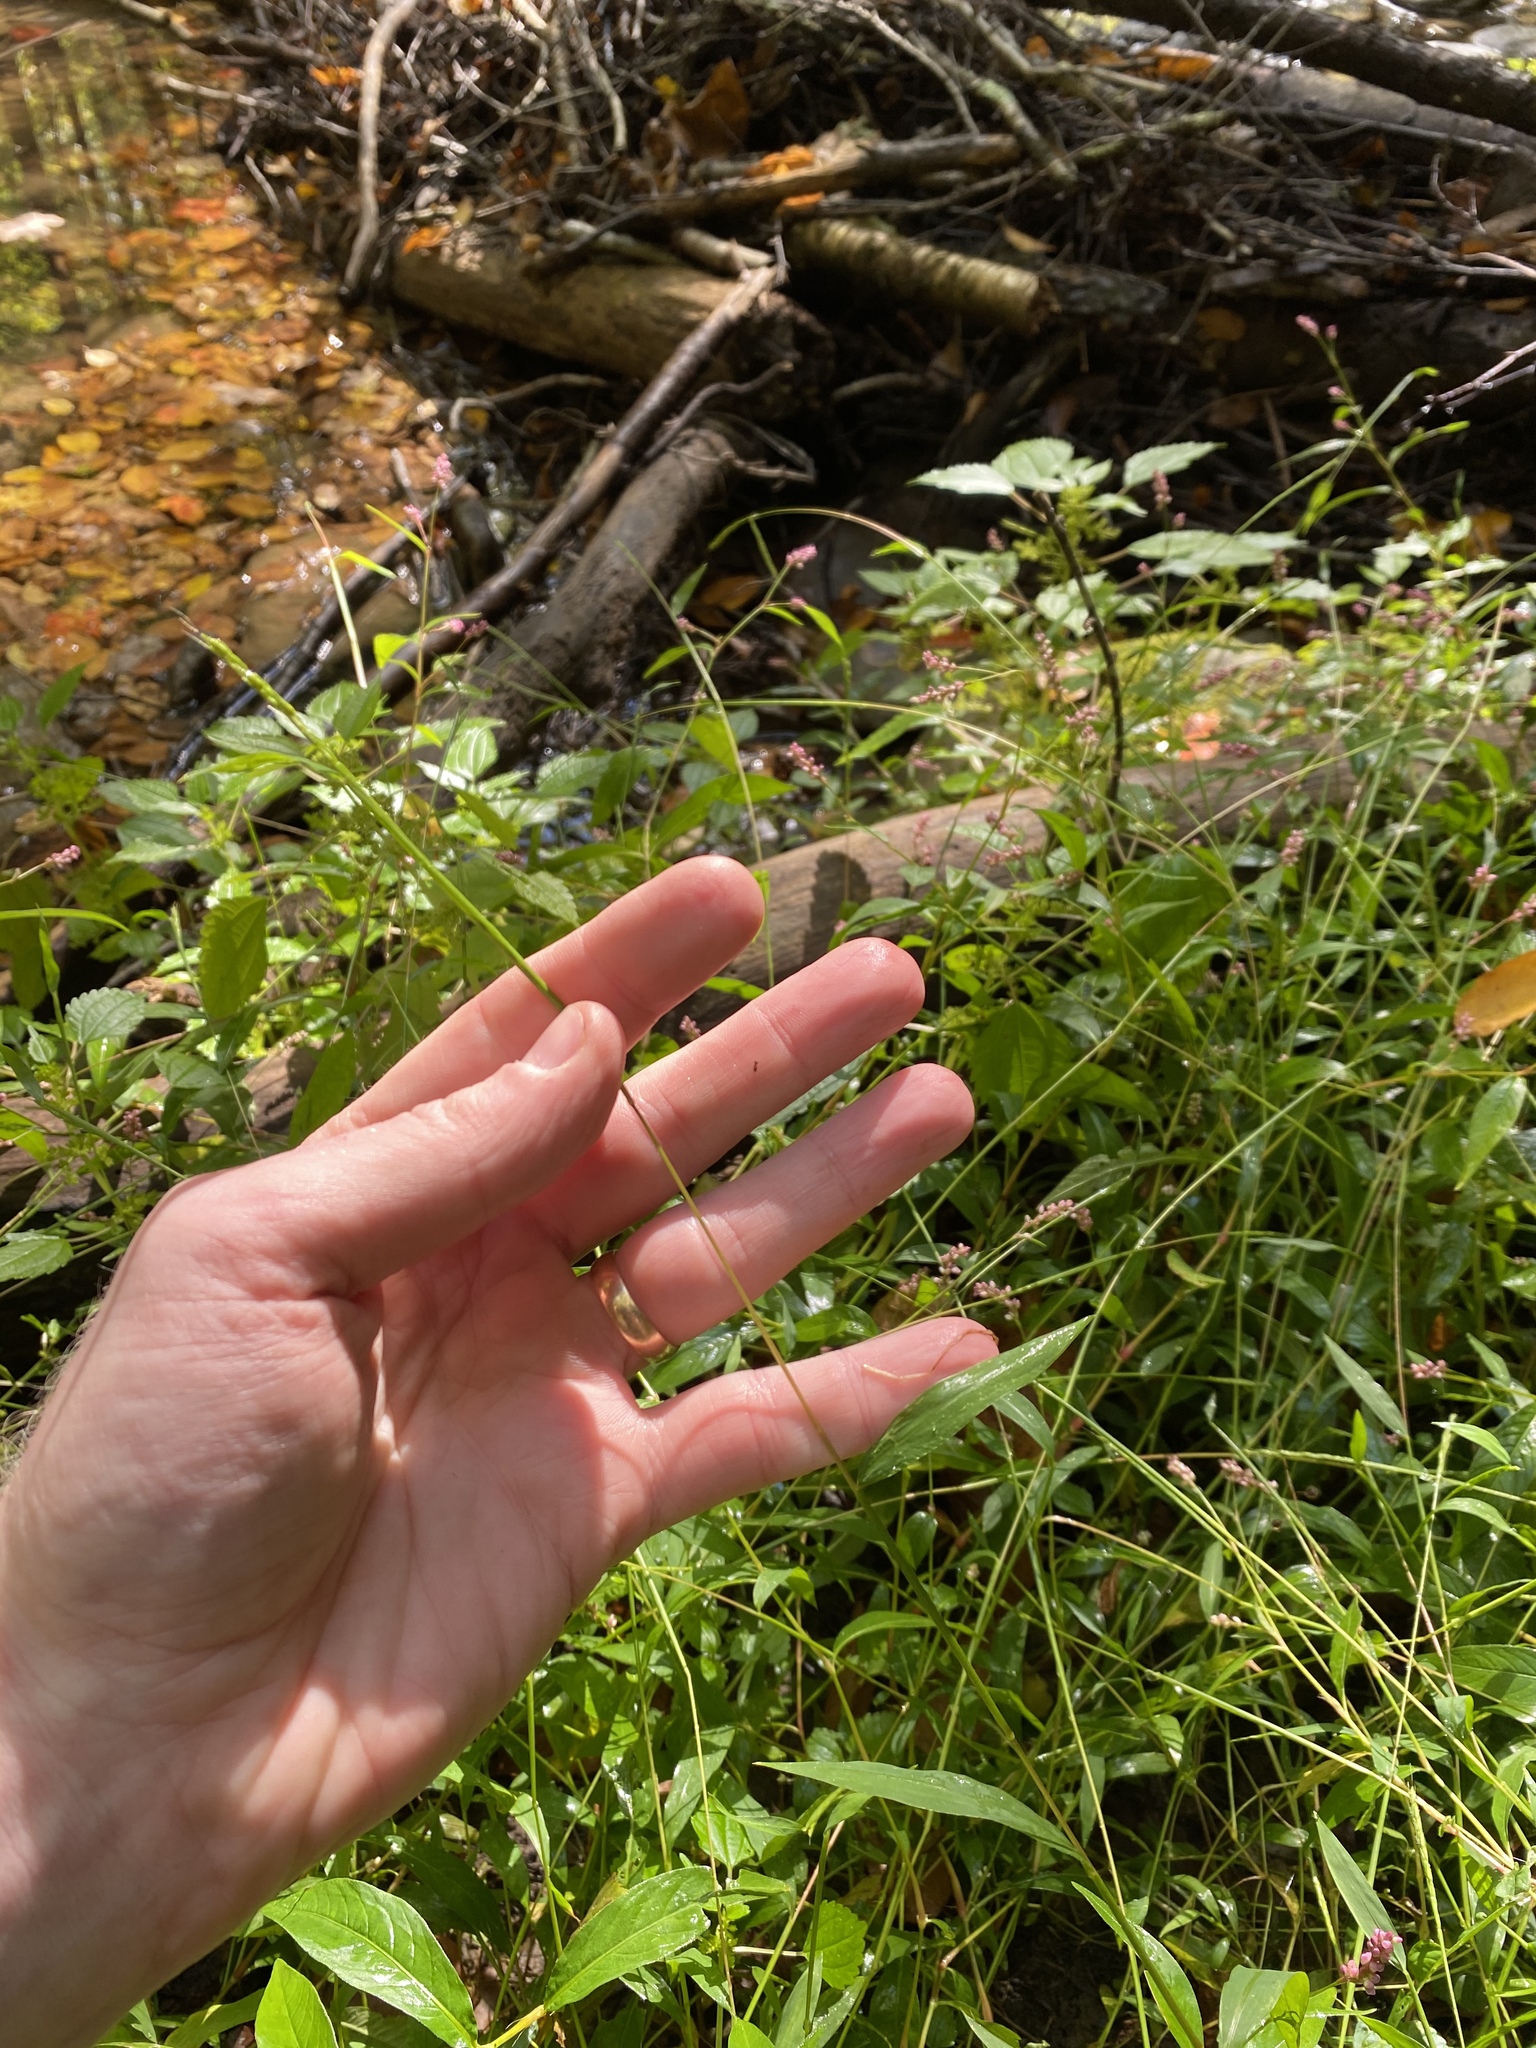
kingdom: Plantae
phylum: Tracheophyta
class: Liliopsida
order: Poales
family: Poaceae
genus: Microstegium
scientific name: Microstegium vimineum
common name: Japanese stiltgrass
